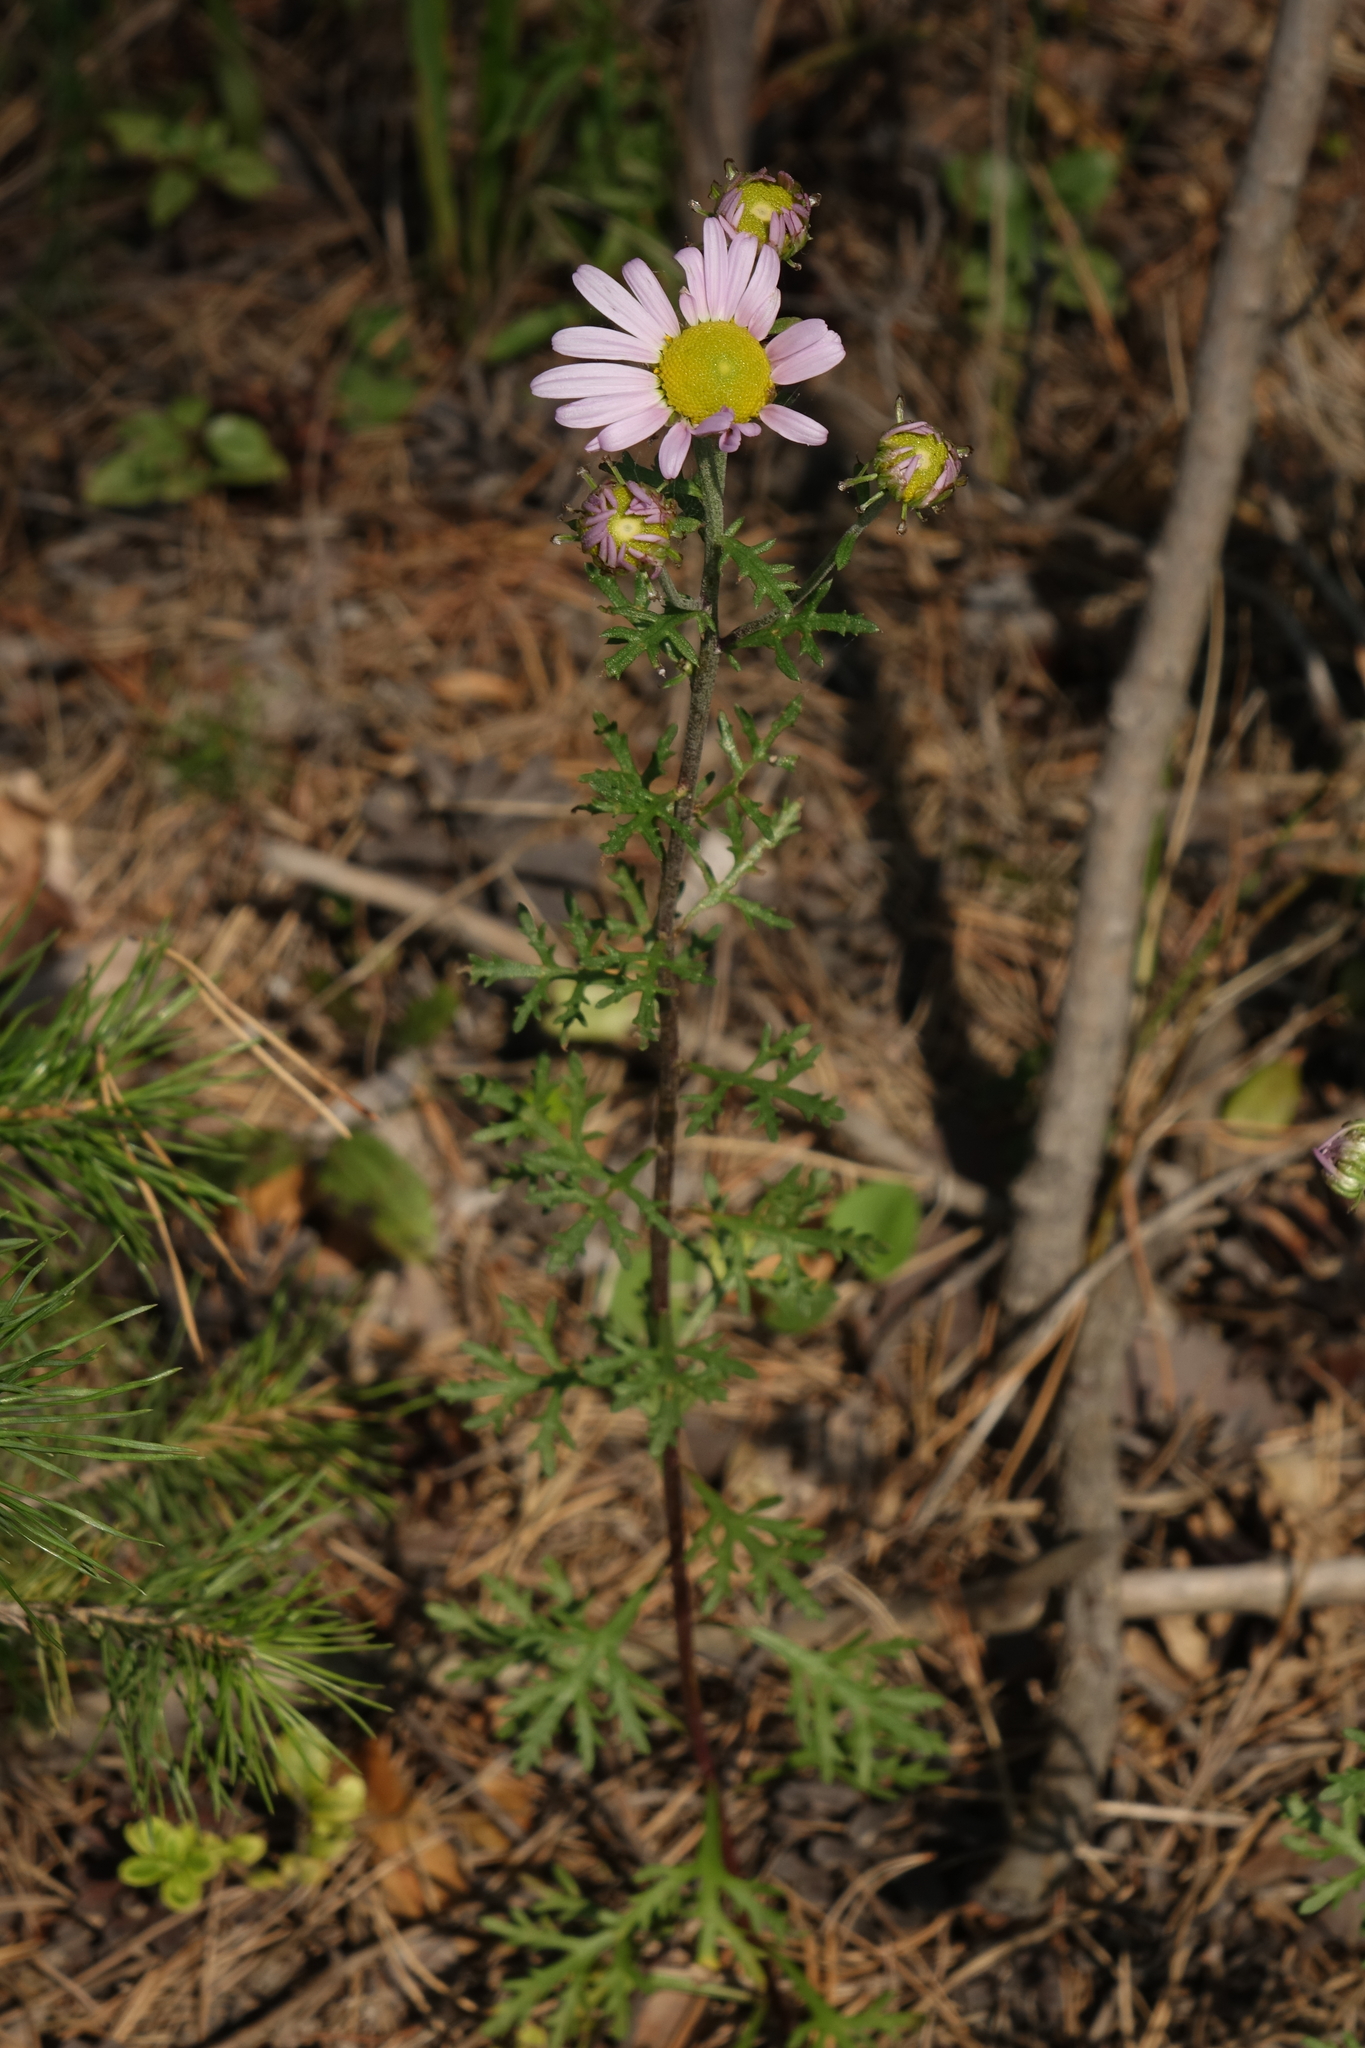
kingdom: Plantae
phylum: Tracheophyta
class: Magnoliopsida
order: Asterales
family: Asteraceae
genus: Chrysanthemum
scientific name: Chrysanthemum zawadzkii
